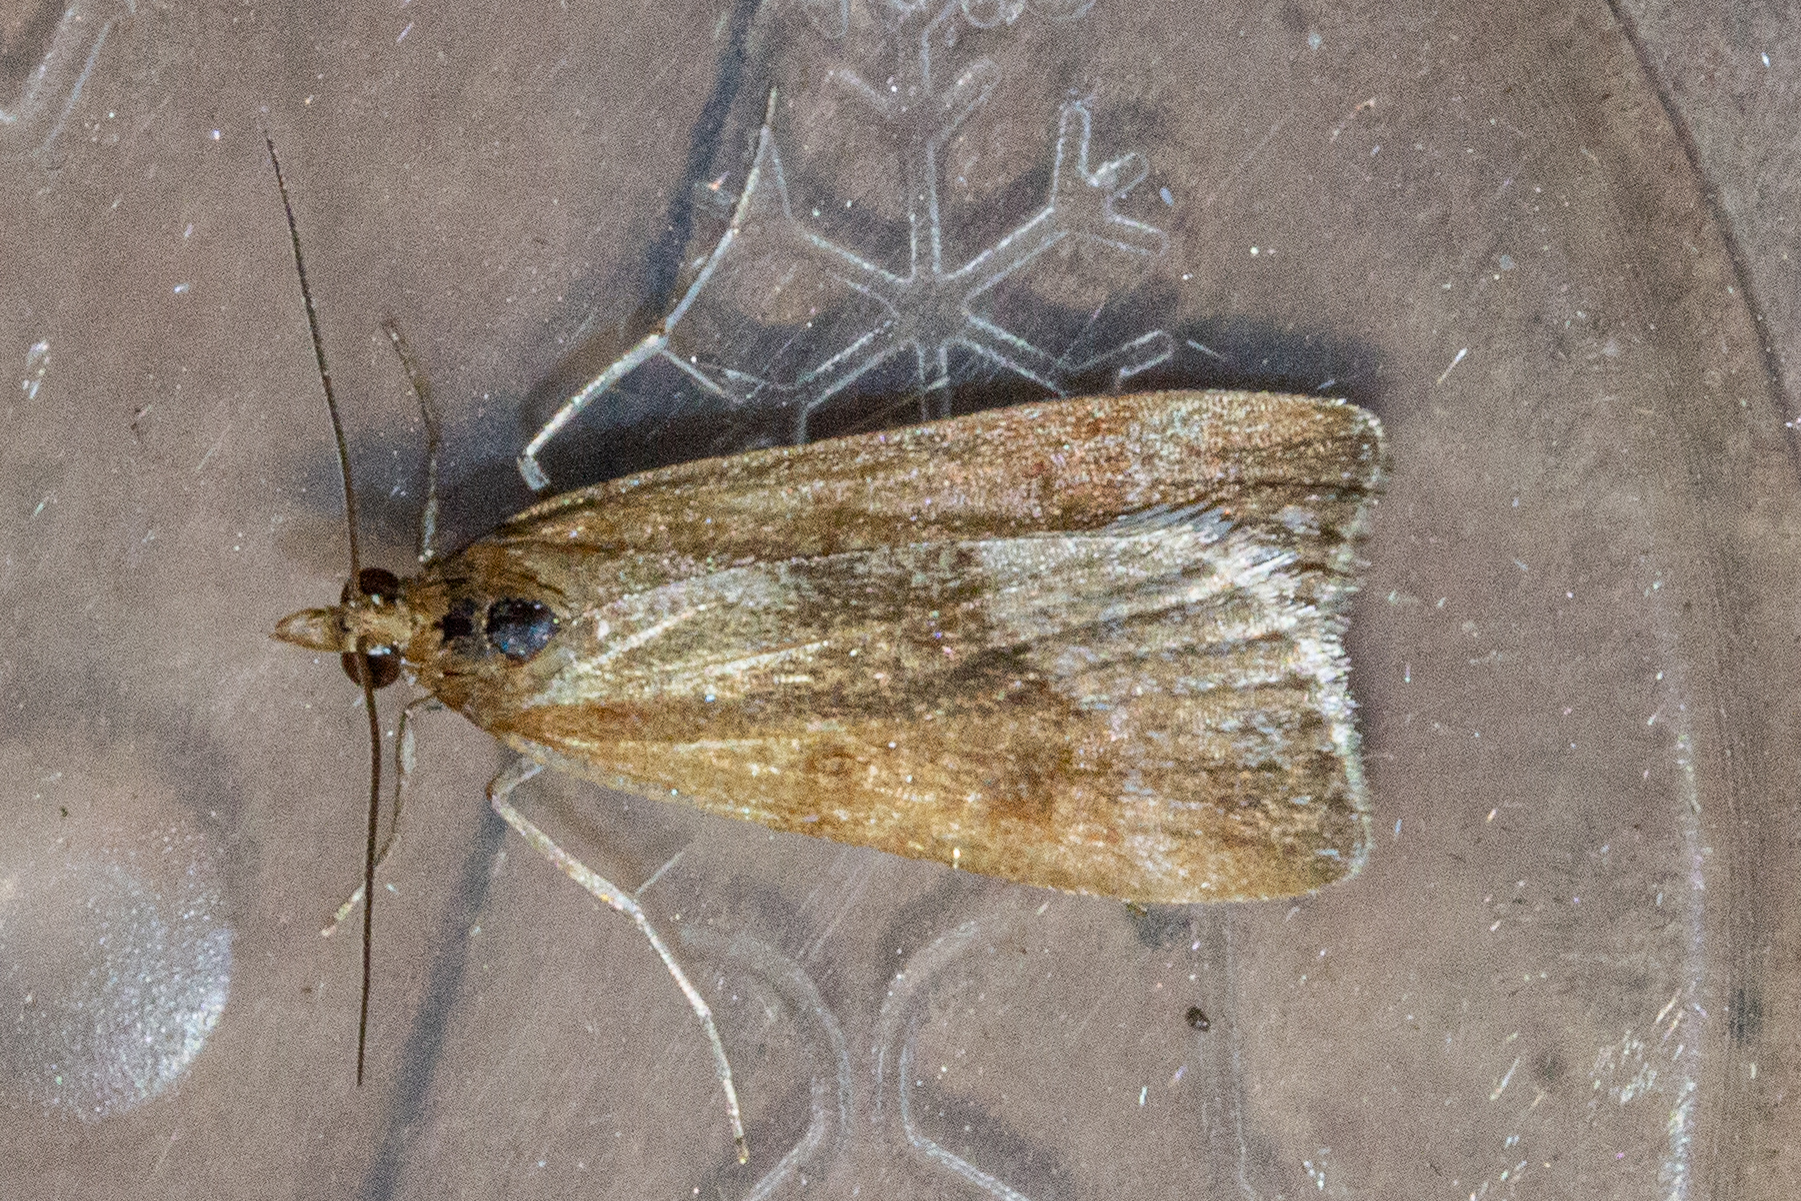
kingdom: Animalia
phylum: Arthropoda
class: Insecta
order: Lepidoptera
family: Crambidae
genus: Eudonia
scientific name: Eudonia feredayi
